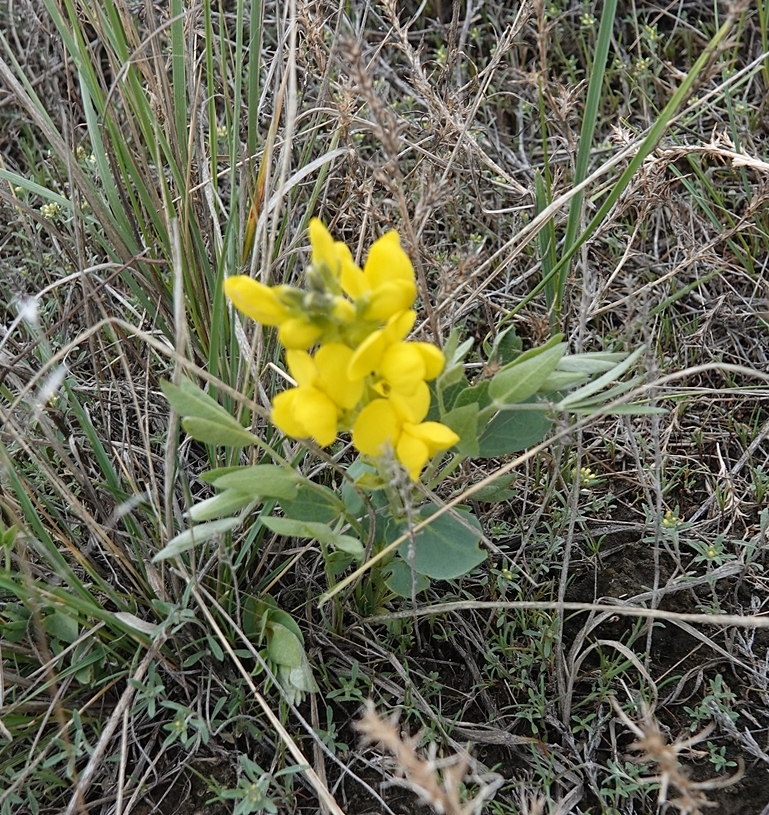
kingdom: Plantae
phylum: Tracheophyta
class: Magnoliopsida
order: Fabales
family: Fabaceae
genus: Thermopsis
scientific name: Thermopsis rhombifolia
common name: Circle-pod-pea
